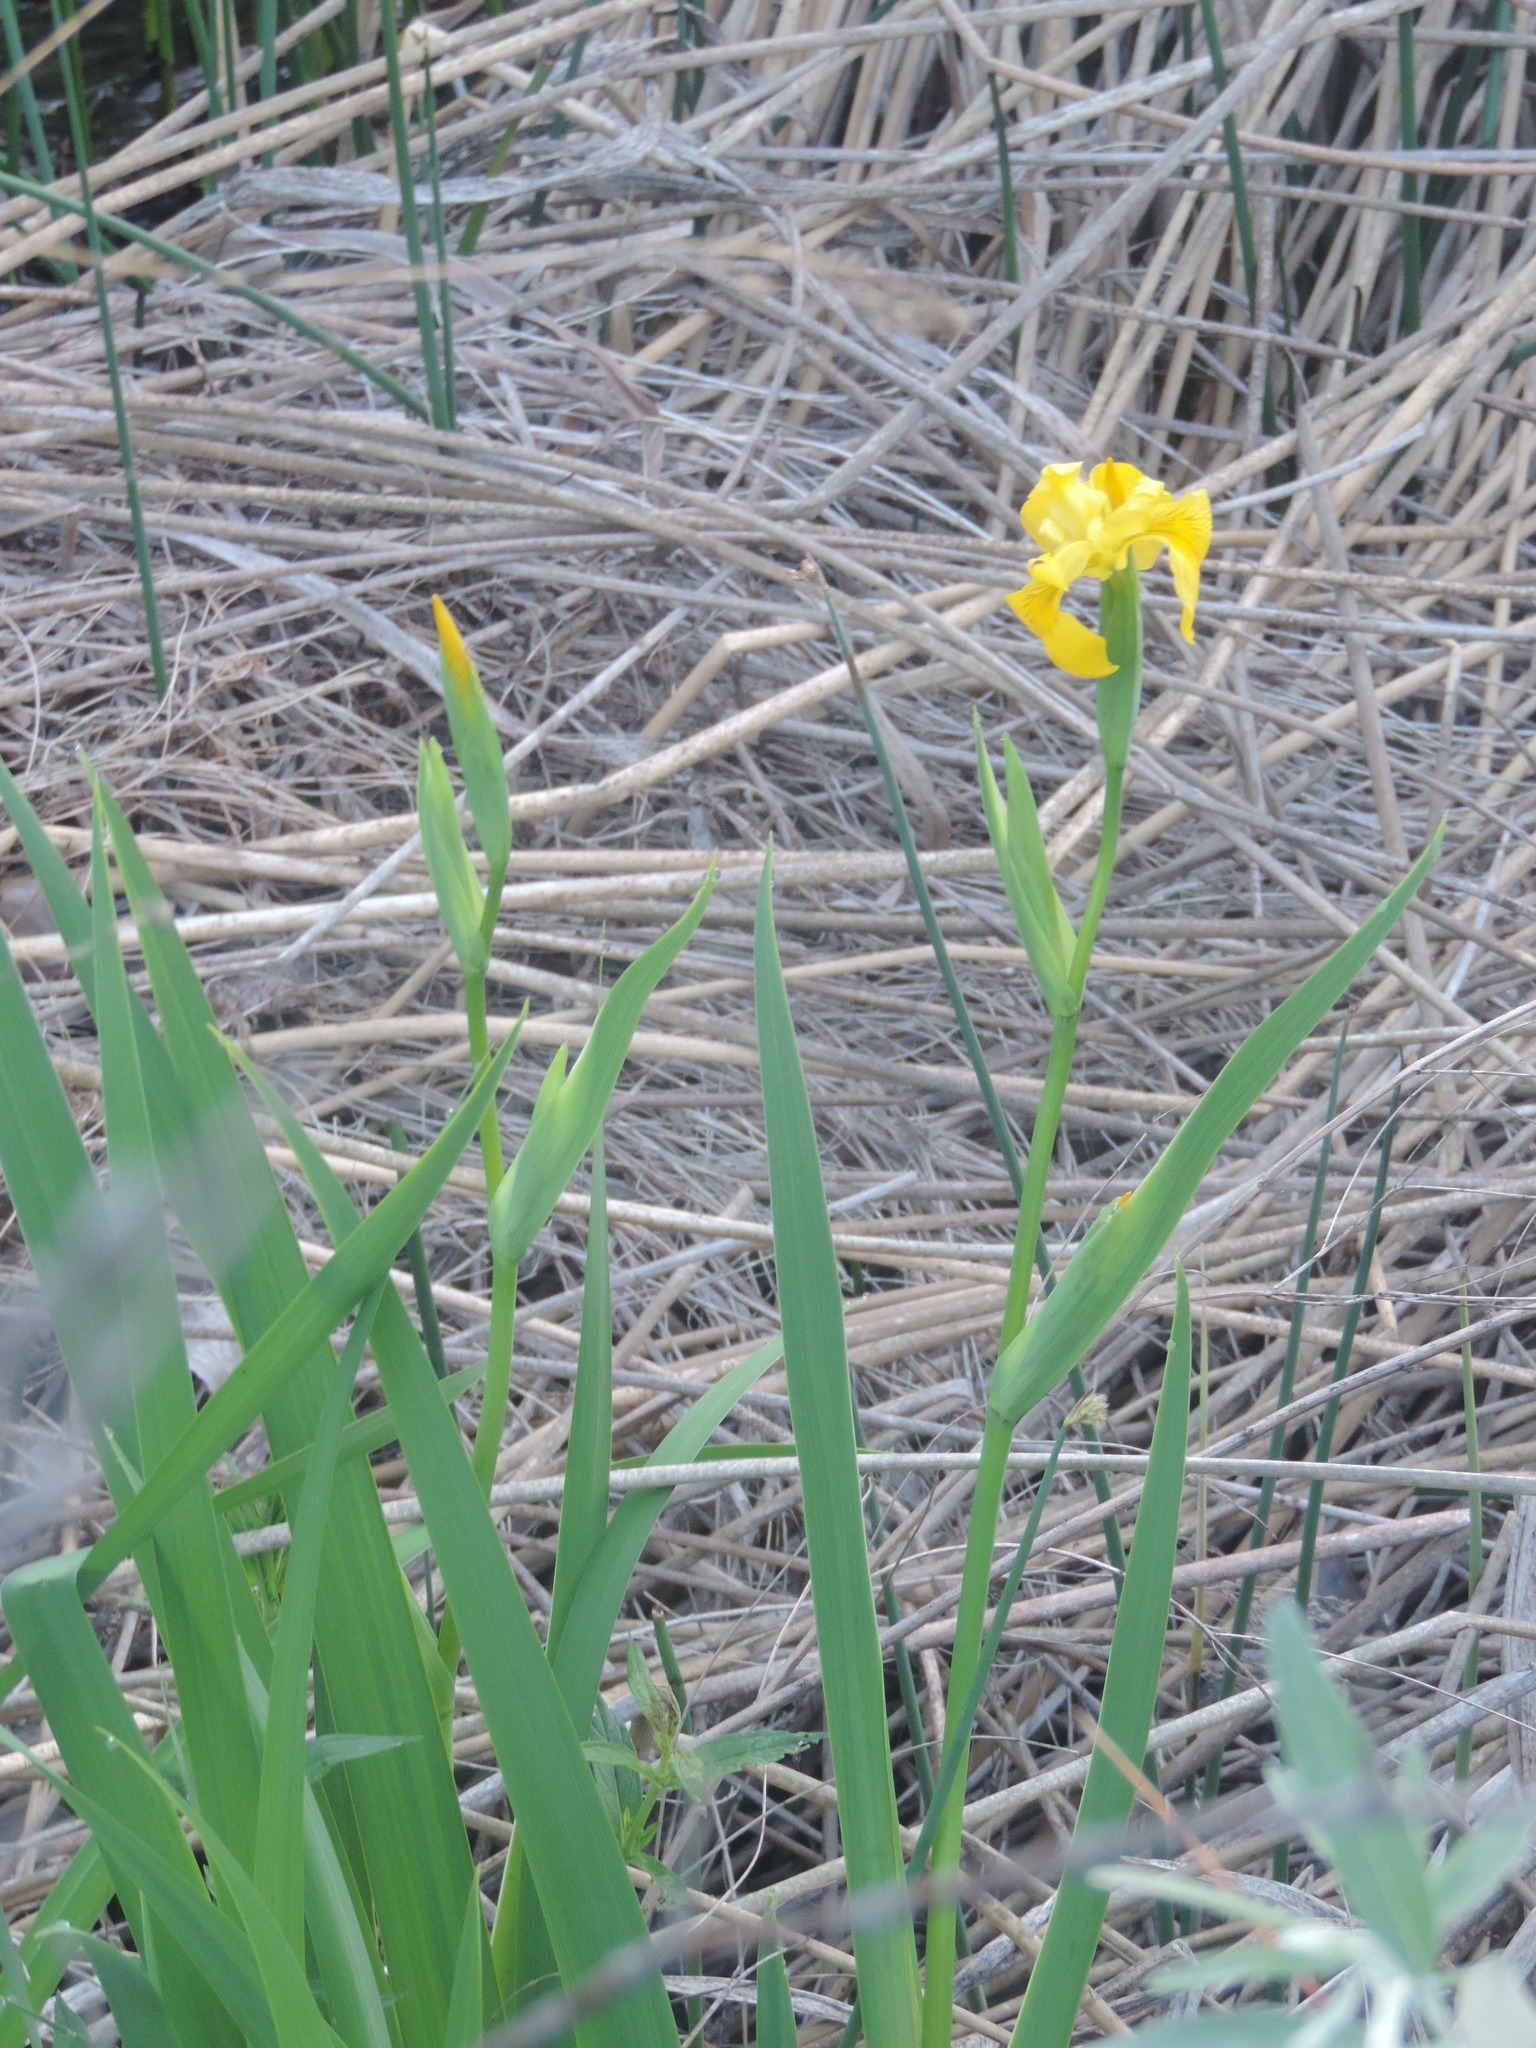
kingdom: Plantae
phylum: Tracheophyta
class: Liliopsida
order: Asparagales
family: Iridaceae
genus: Iris
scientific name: Iris pseudacorus
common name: Yellow flag
